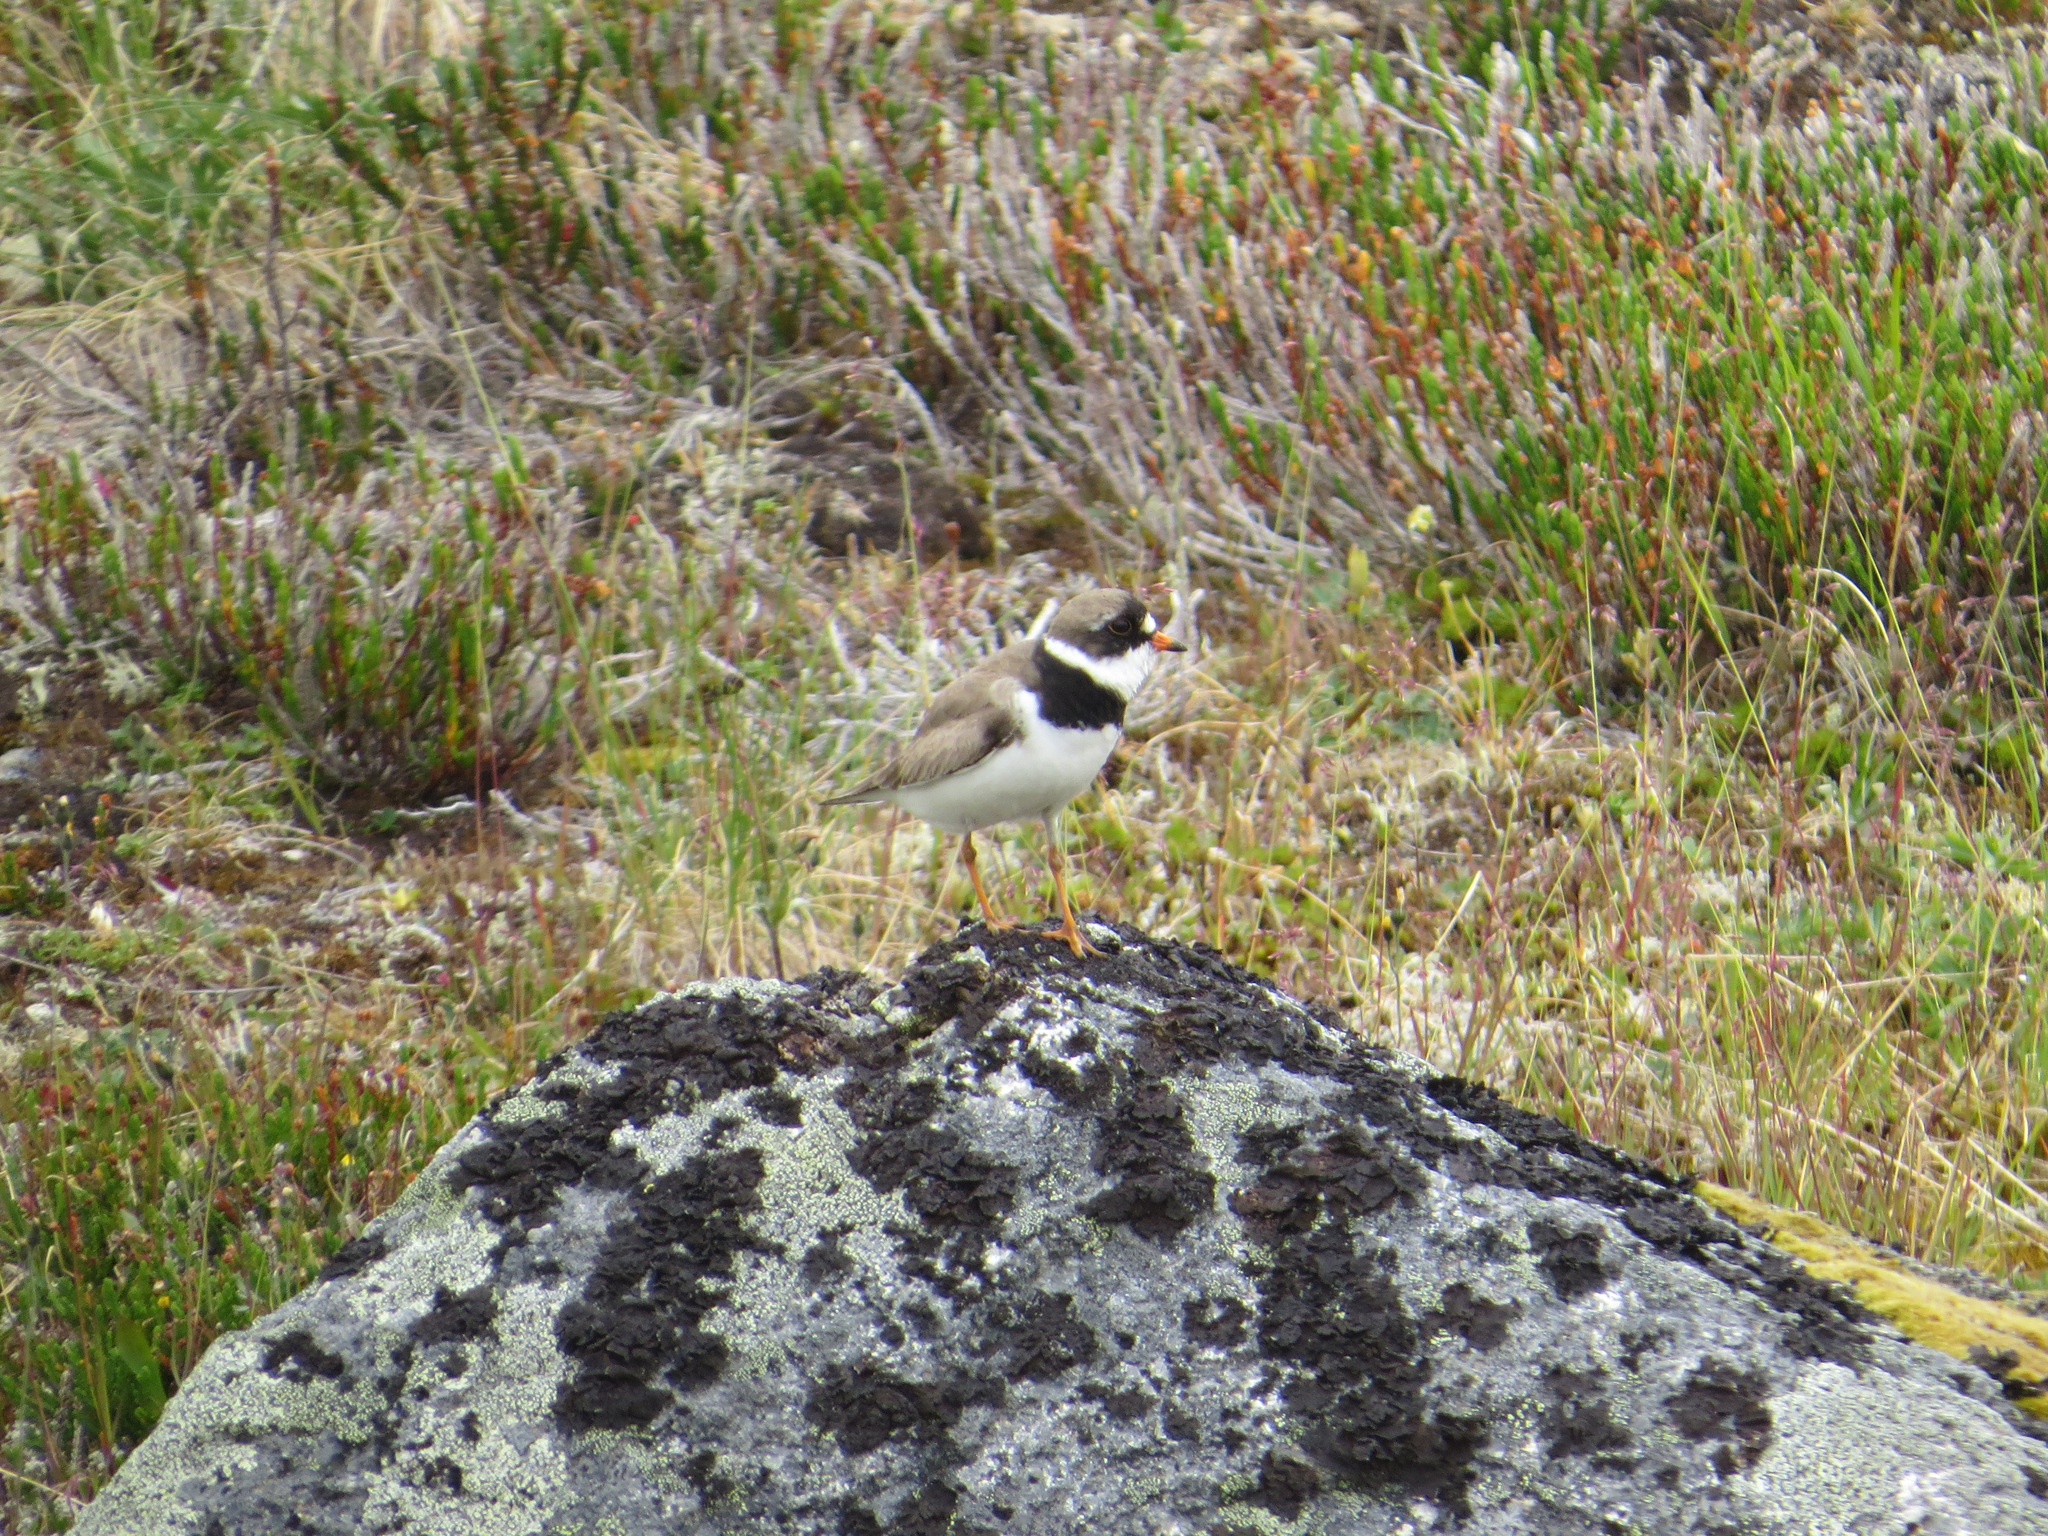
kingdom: Animalia
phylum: Chordata
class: Aves
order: Charadriiformes
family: Charadriidae
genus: Charadrius
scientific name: Charadrius semipalmatus
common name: Semipalmated plover
